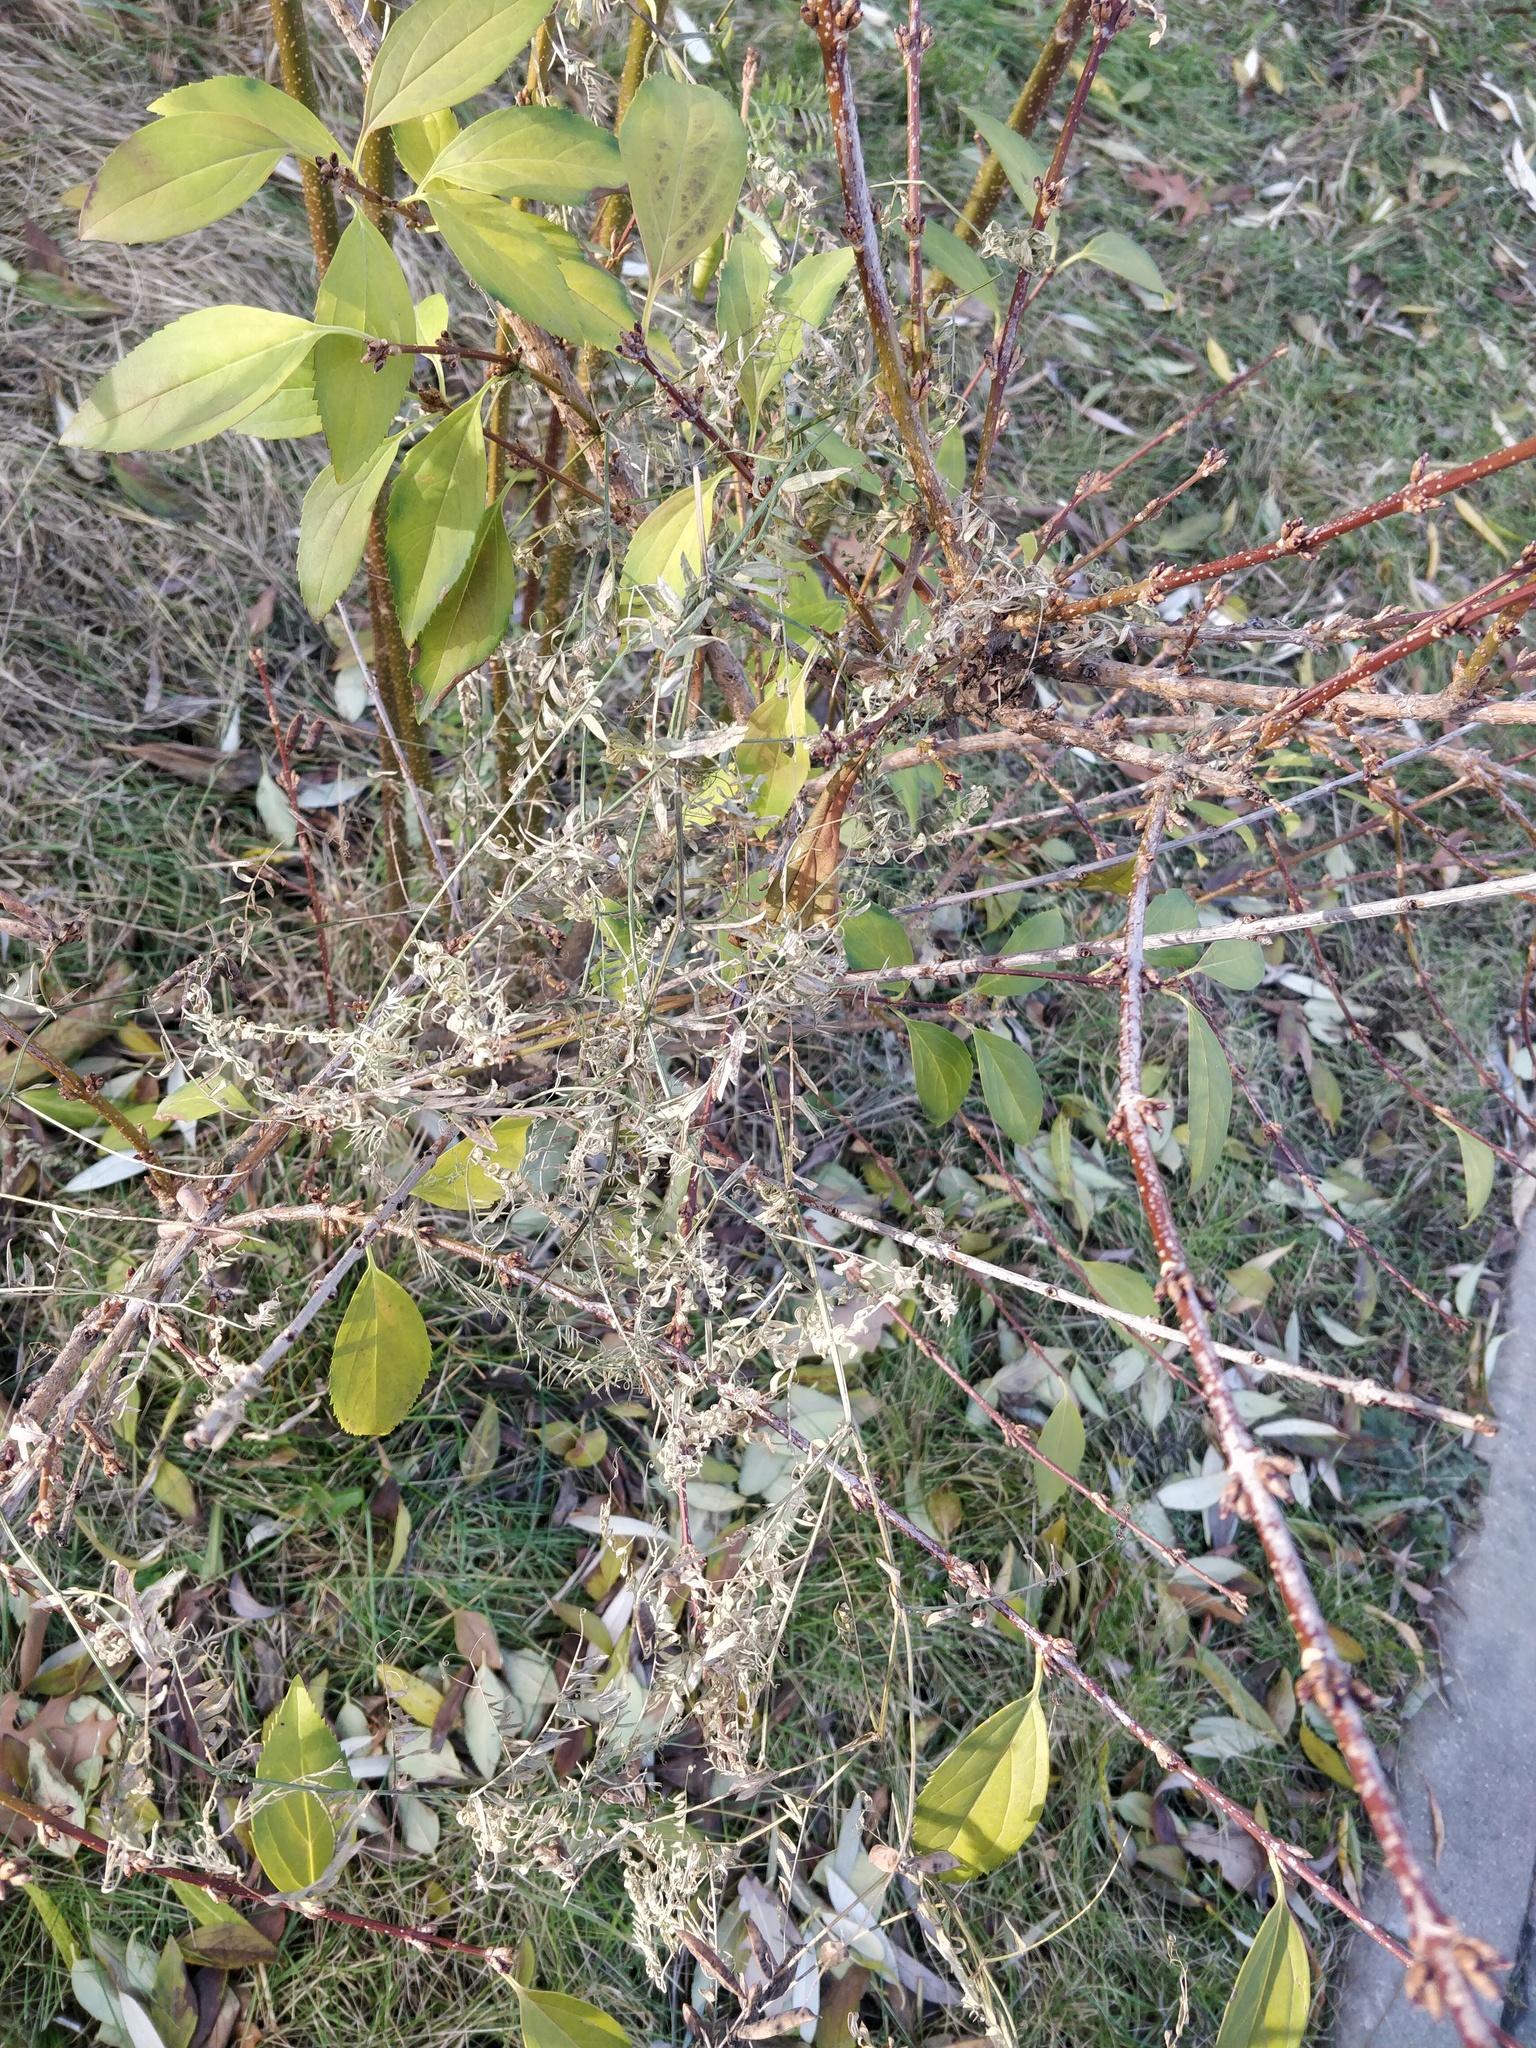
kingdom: Plantae
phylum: Tracheophyta
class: Magnoliopsida
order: Fabales
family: Fabaceae
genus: Vicia
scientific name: Vicia cracca
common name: Bird vetch
